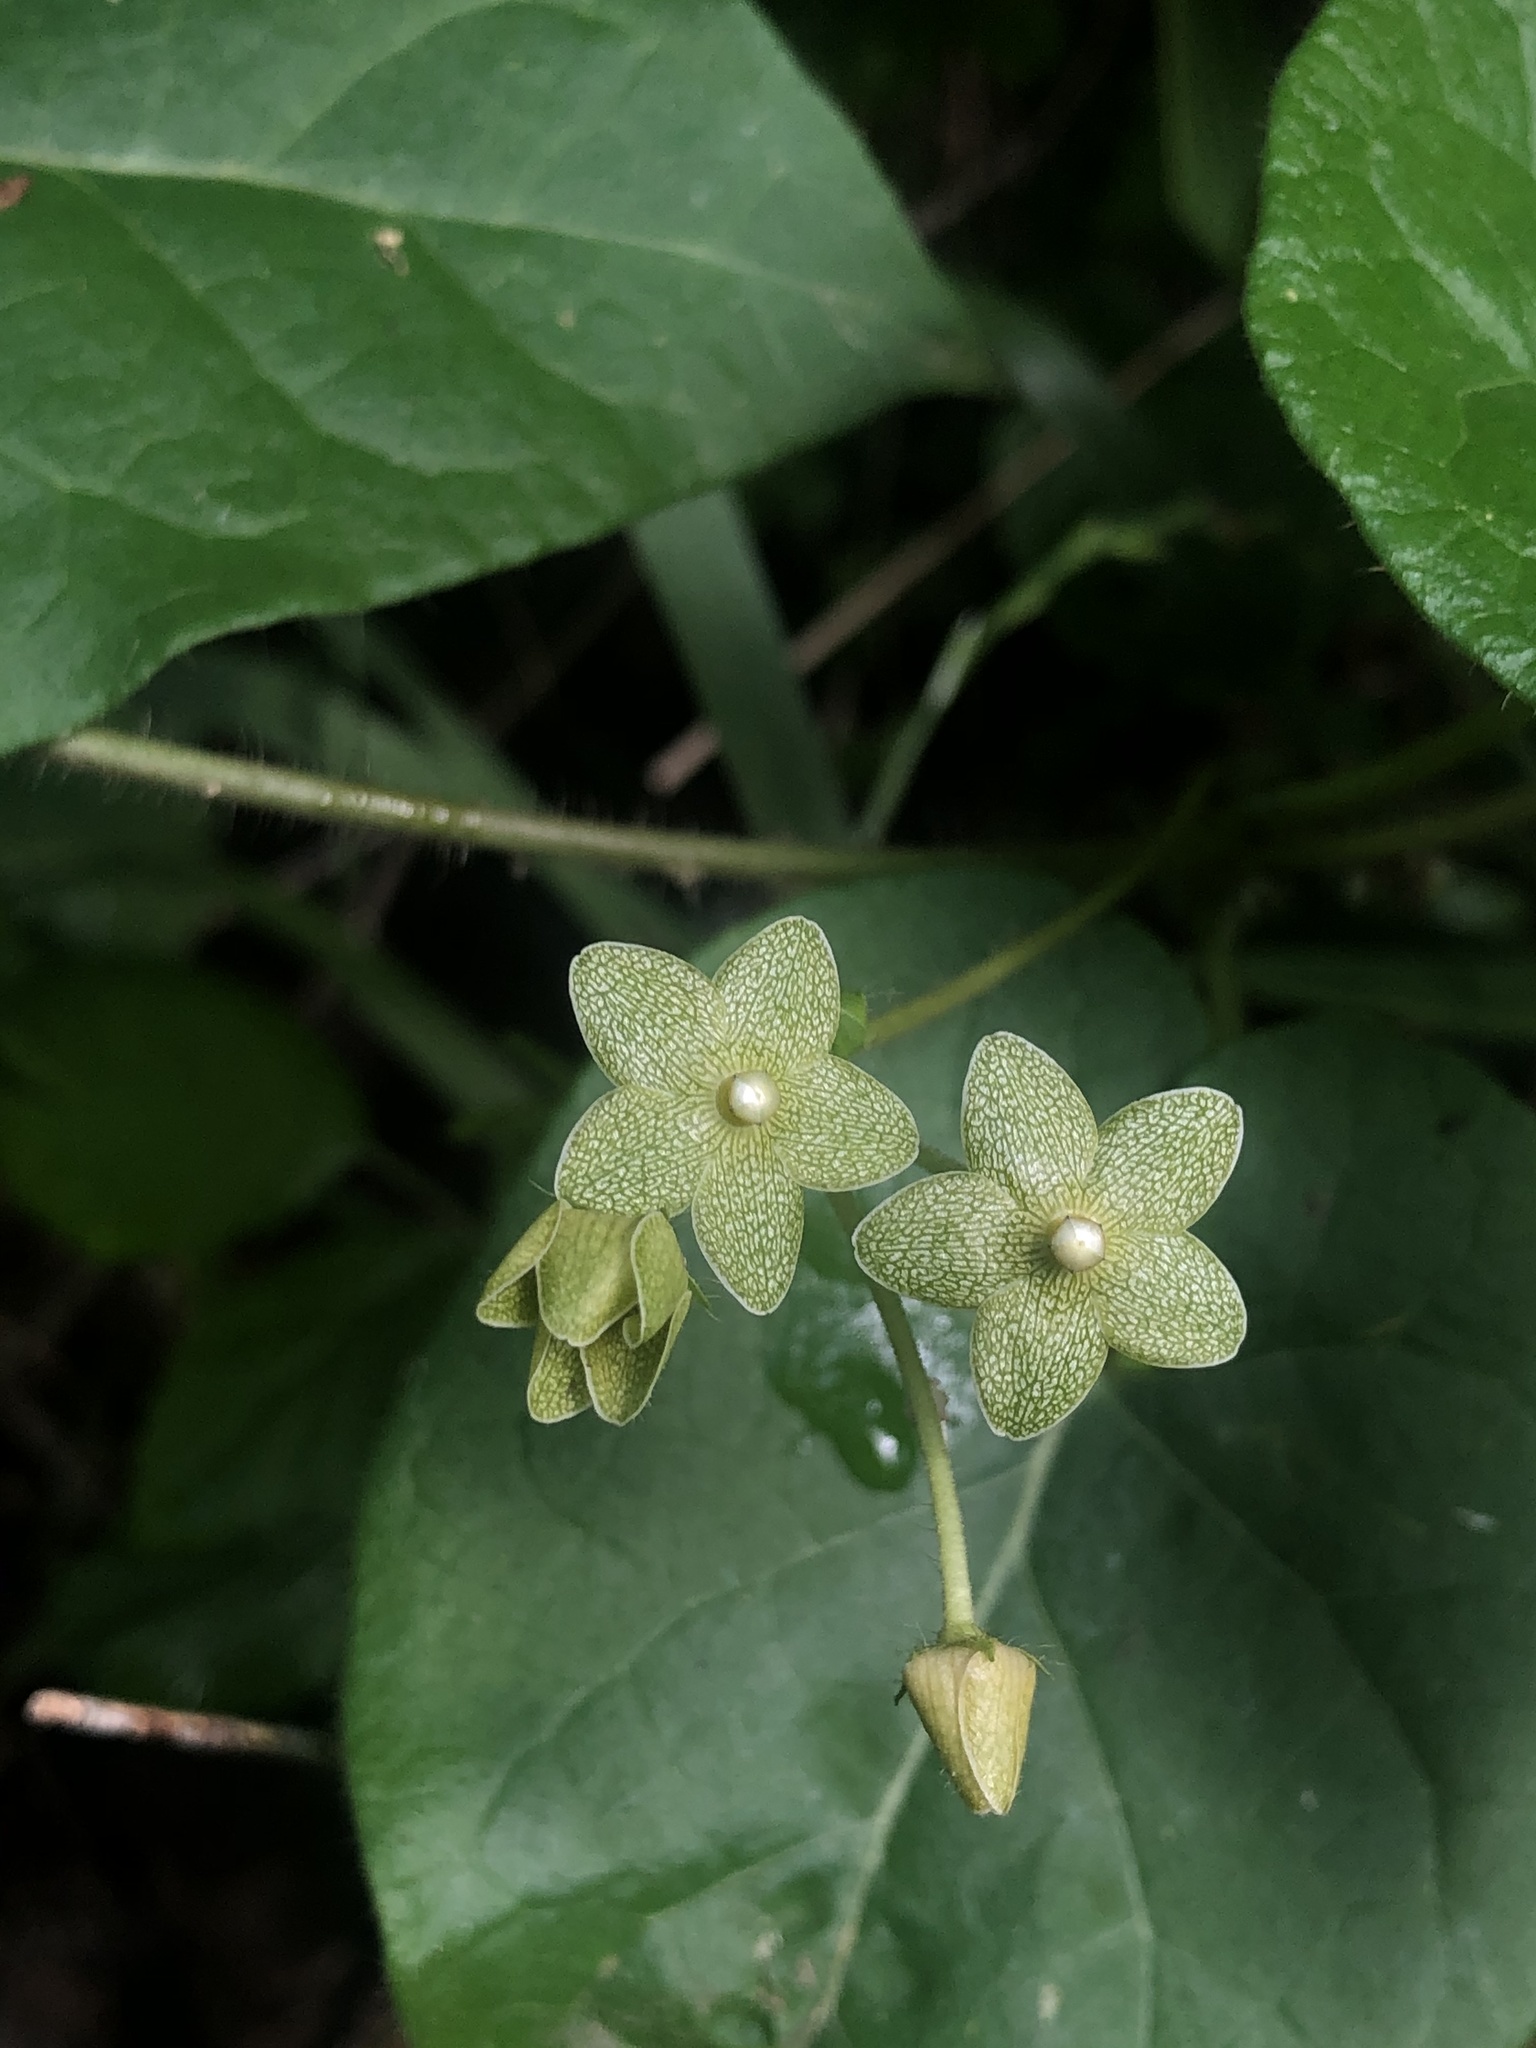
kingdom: Plantae
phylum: Tracheophyta
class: Magnoliopsida
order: Gentianales
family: Apocynaceae
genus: Dictyanthus
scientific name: Dictyanthus reticulatus
